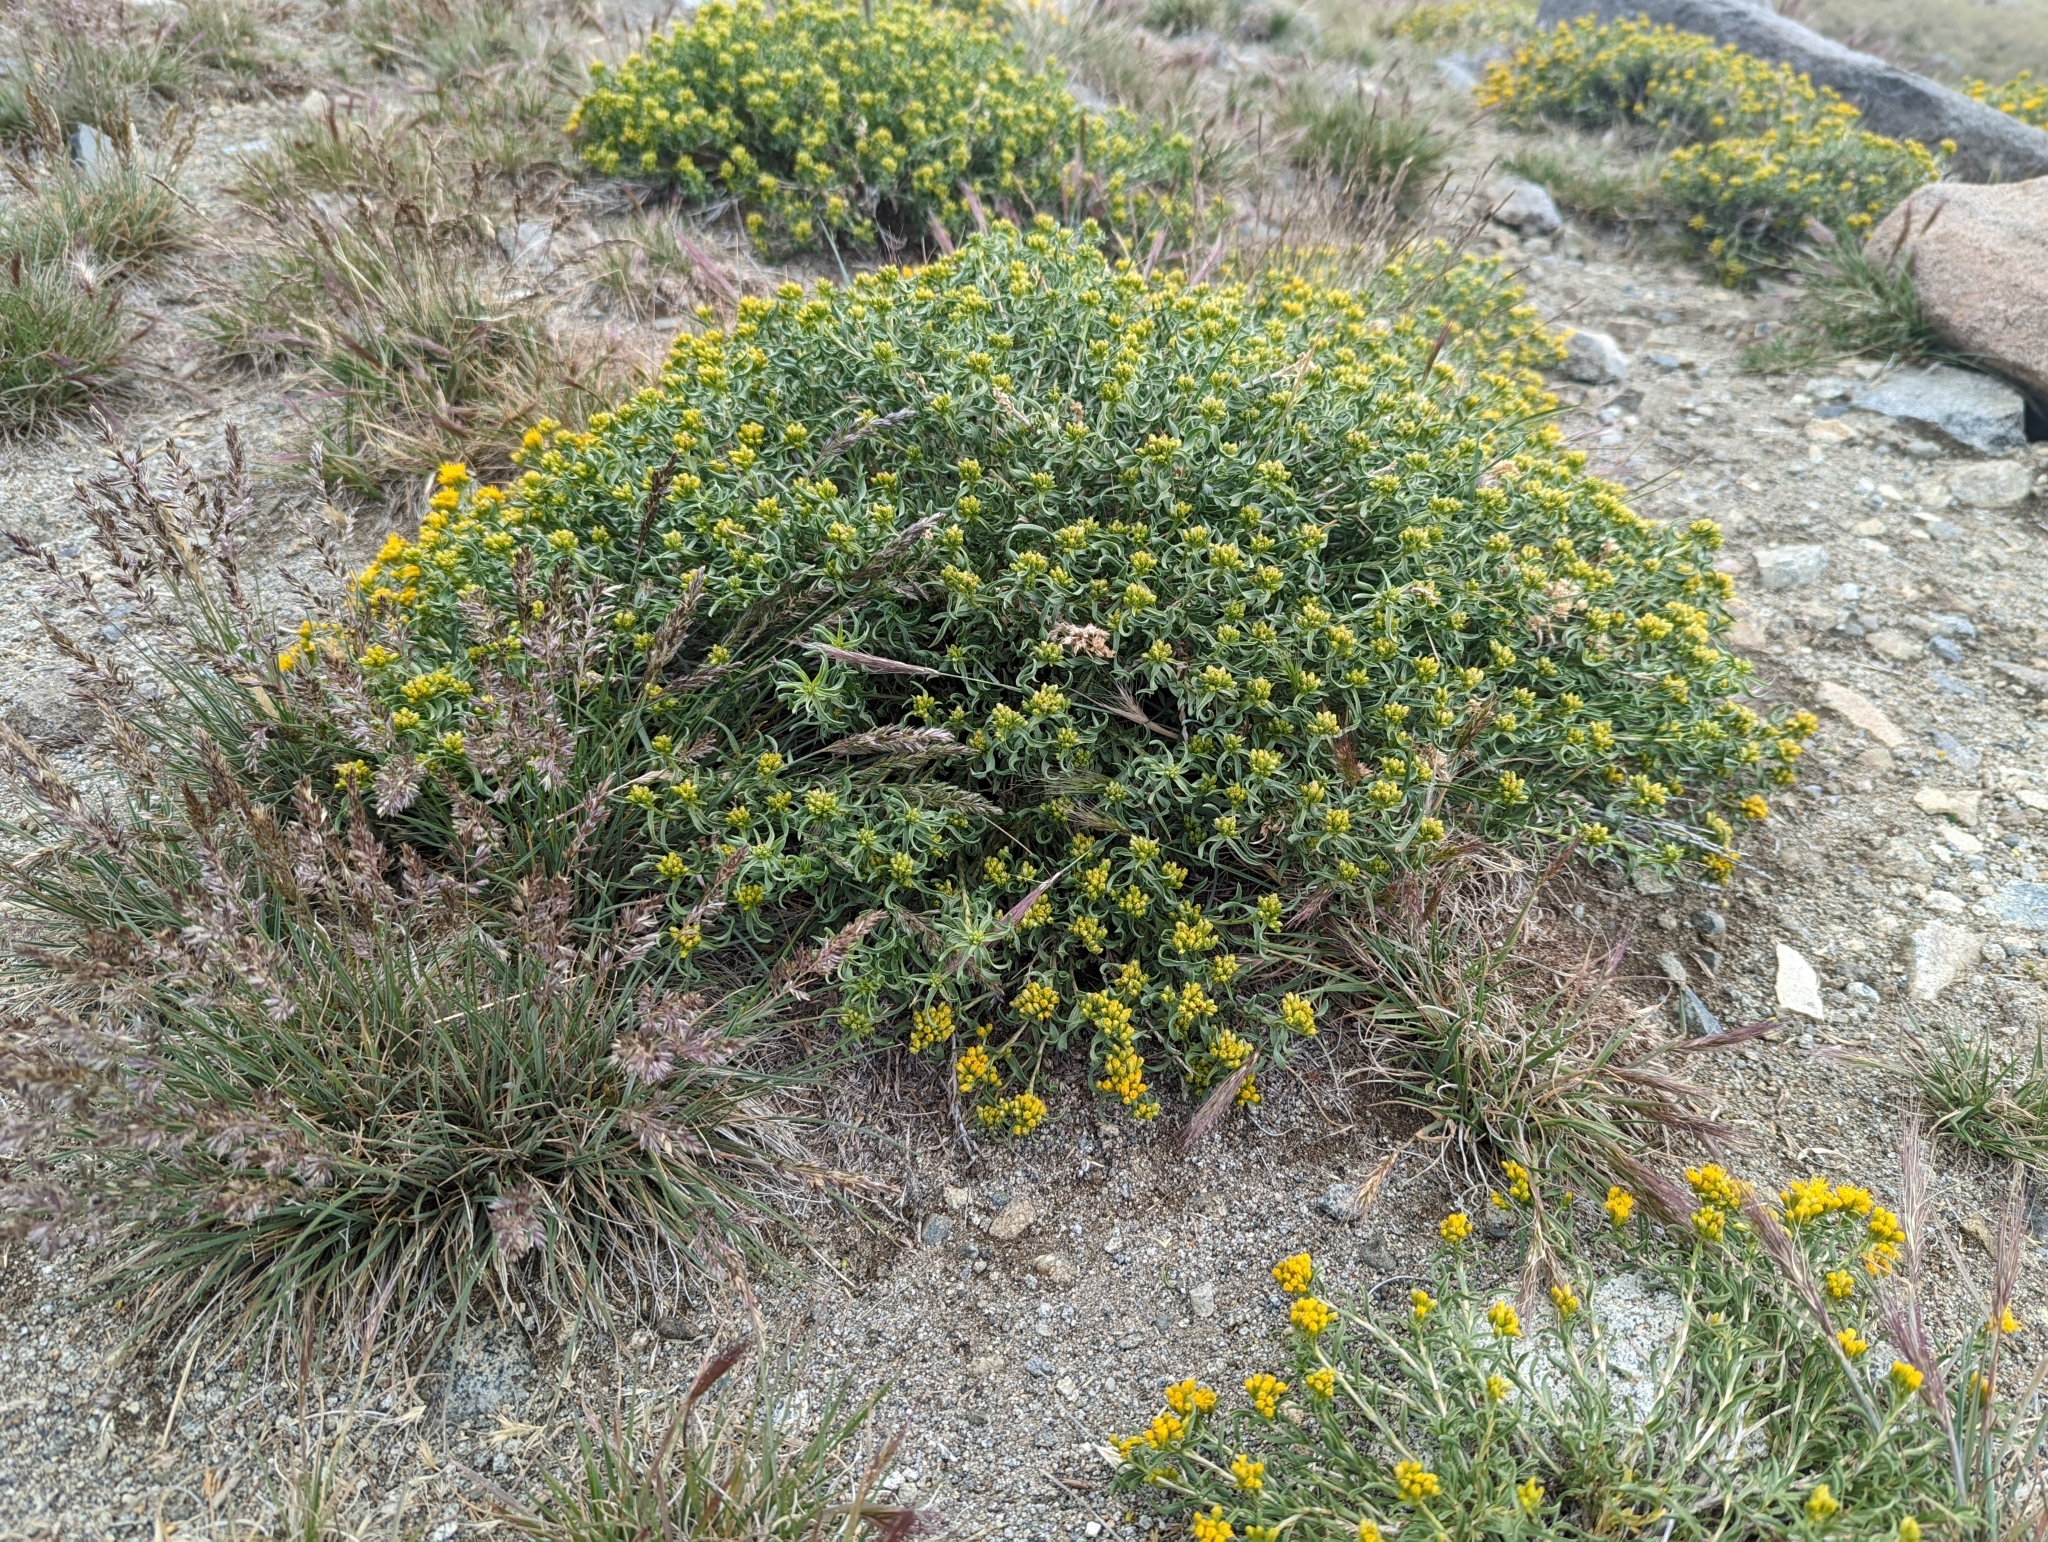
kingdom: Plantae
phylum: Tracheophyta
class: Magnoliopsida
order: Asterales
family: Asteraceae
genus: Chrysothamnus
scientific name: Chrysothamnus viscidiflorus
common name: Yellow rabbitbrush
